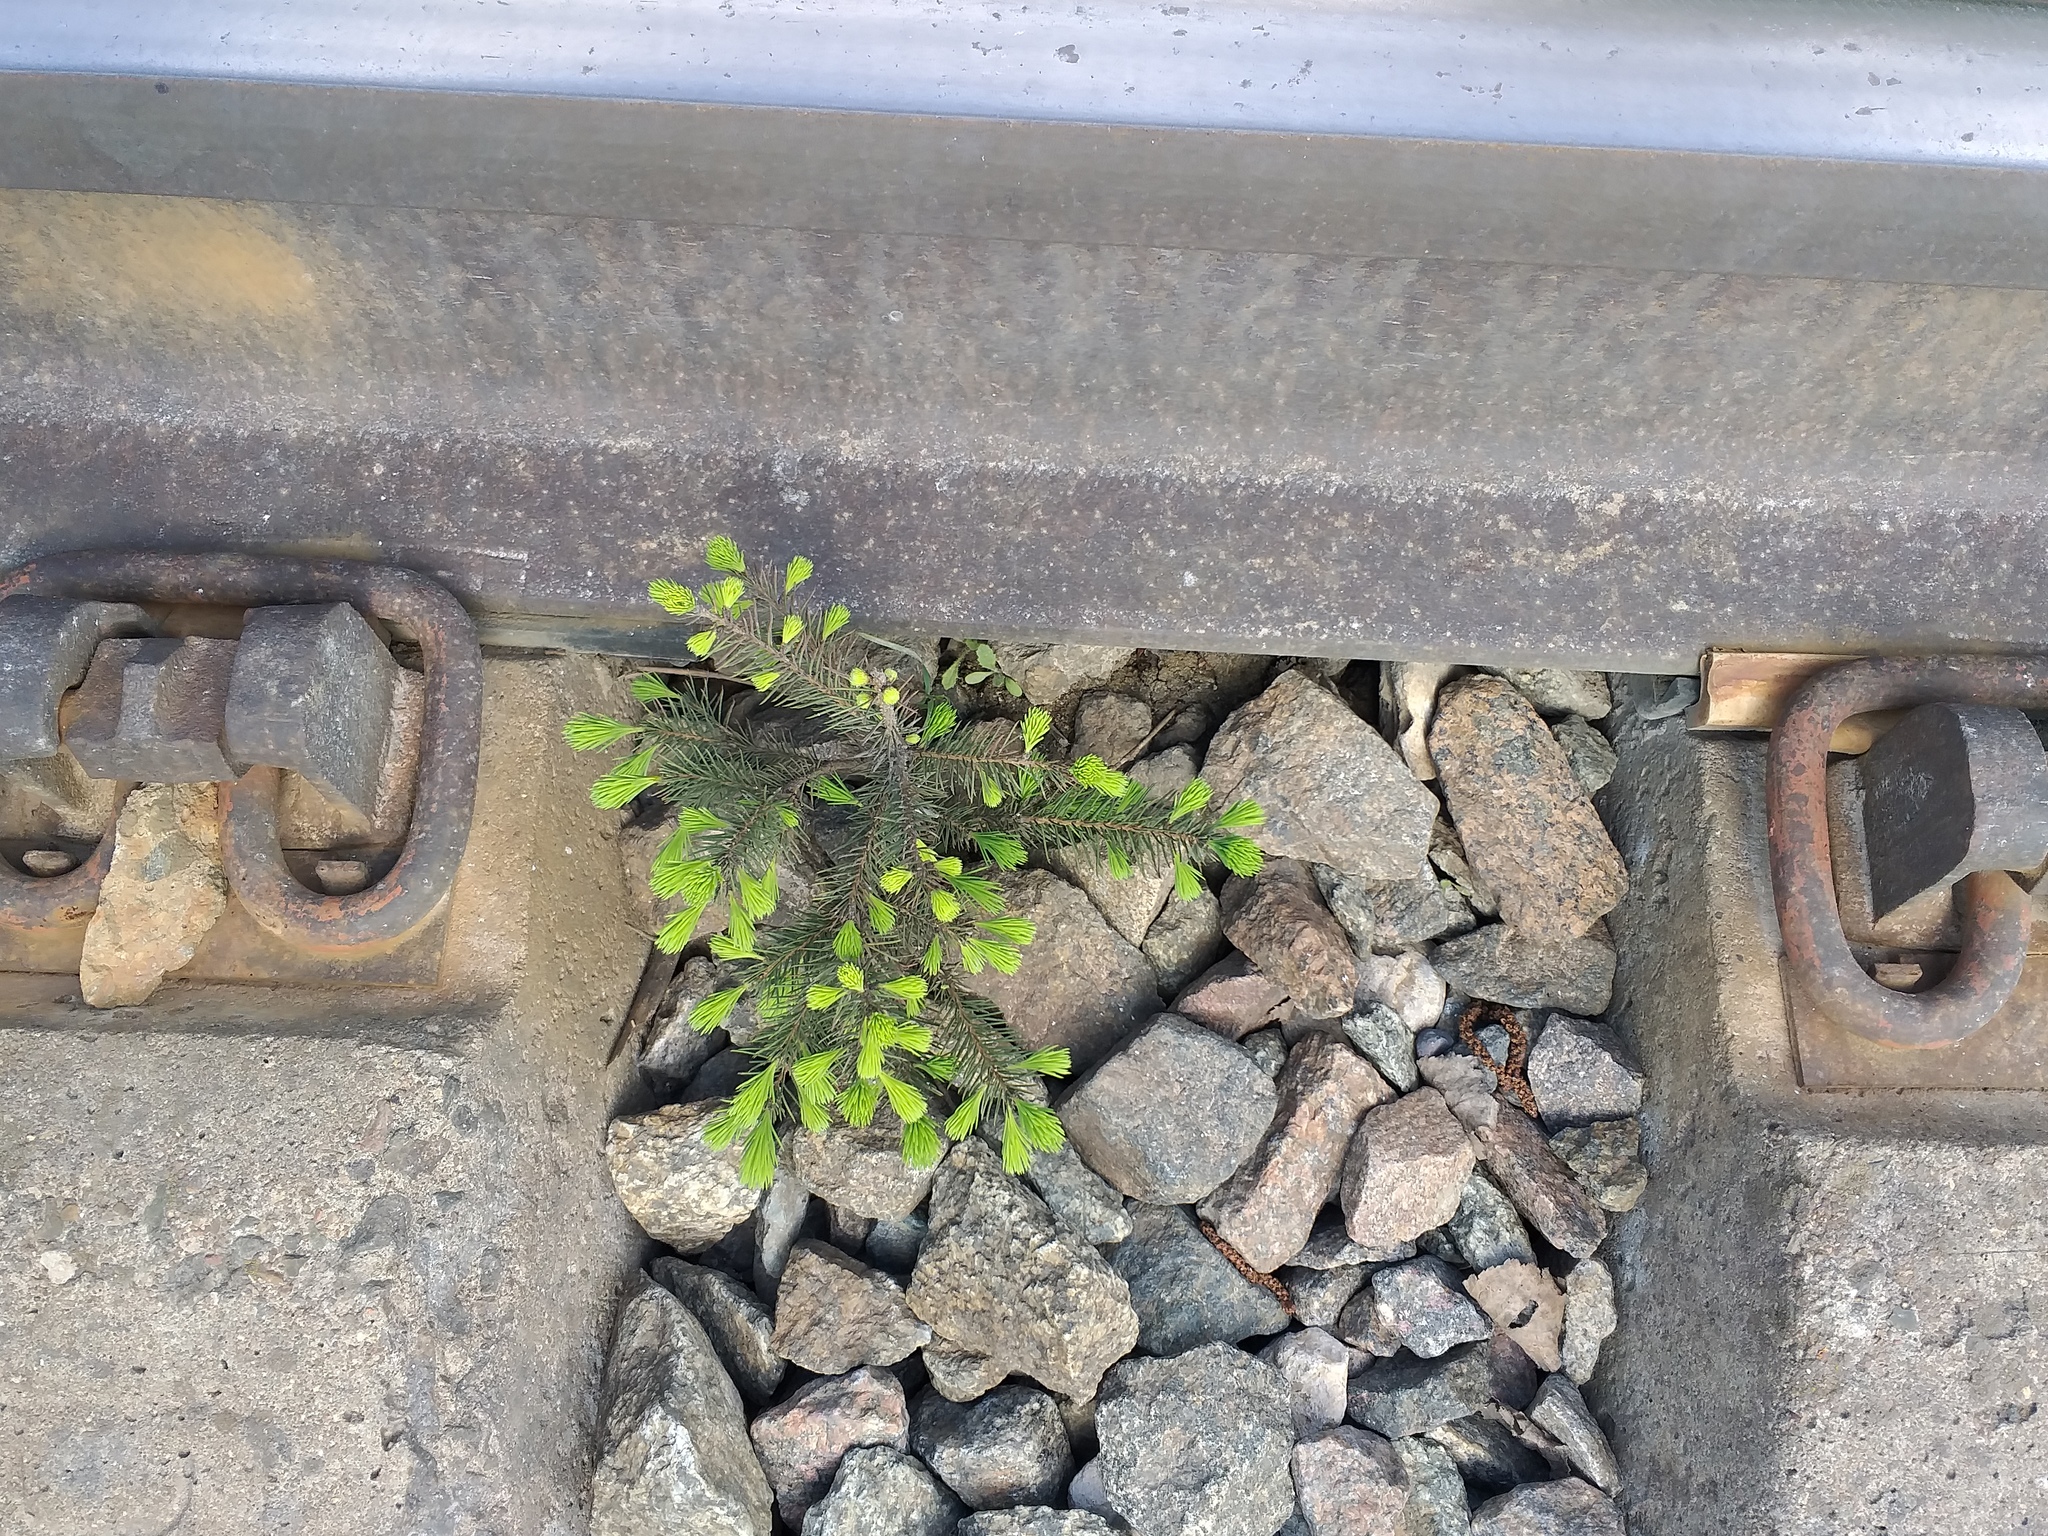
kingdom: Plantae
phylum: Tracheophyta
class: Pinopsida
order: Pinales
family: Pinaceae
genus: Picea
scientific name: Picea abies
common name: Norway spruce
